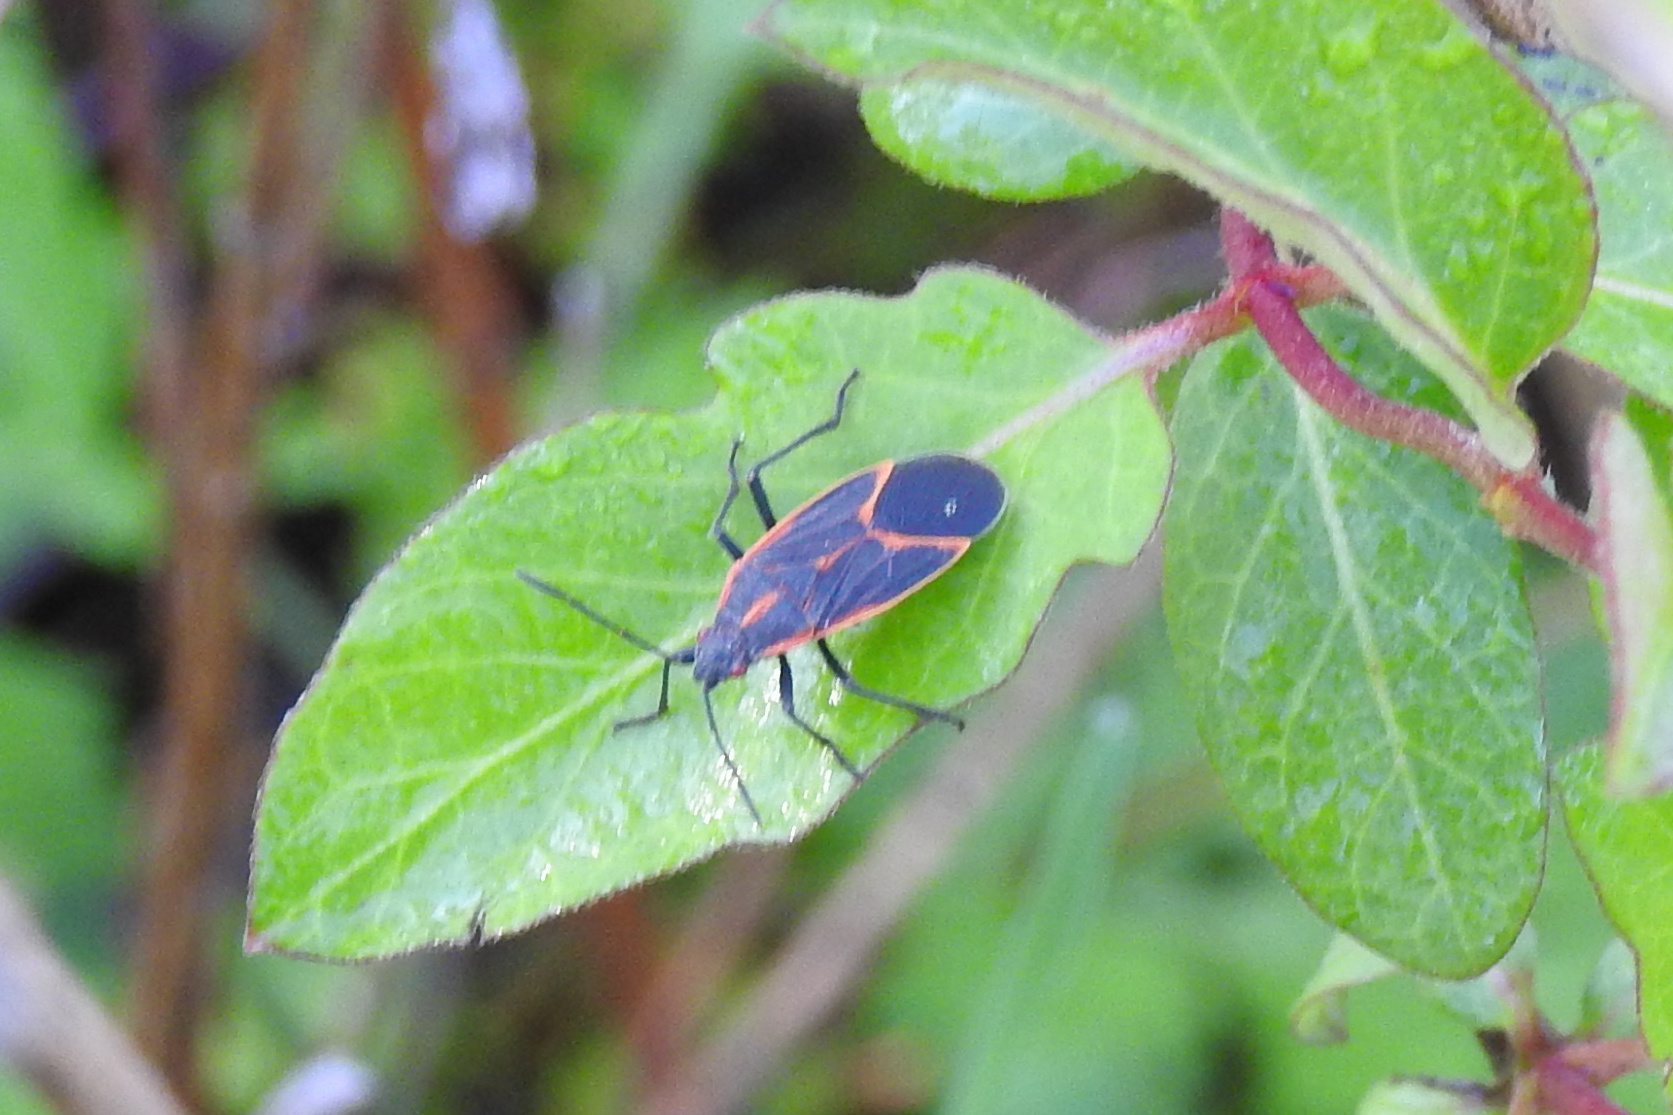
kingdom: Animalia
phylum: Arthropoda
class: Insecta
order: Hemiptera
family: Rhopalidae
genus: Boisea
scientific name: Boisea trivittata
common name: Boxelder bug
